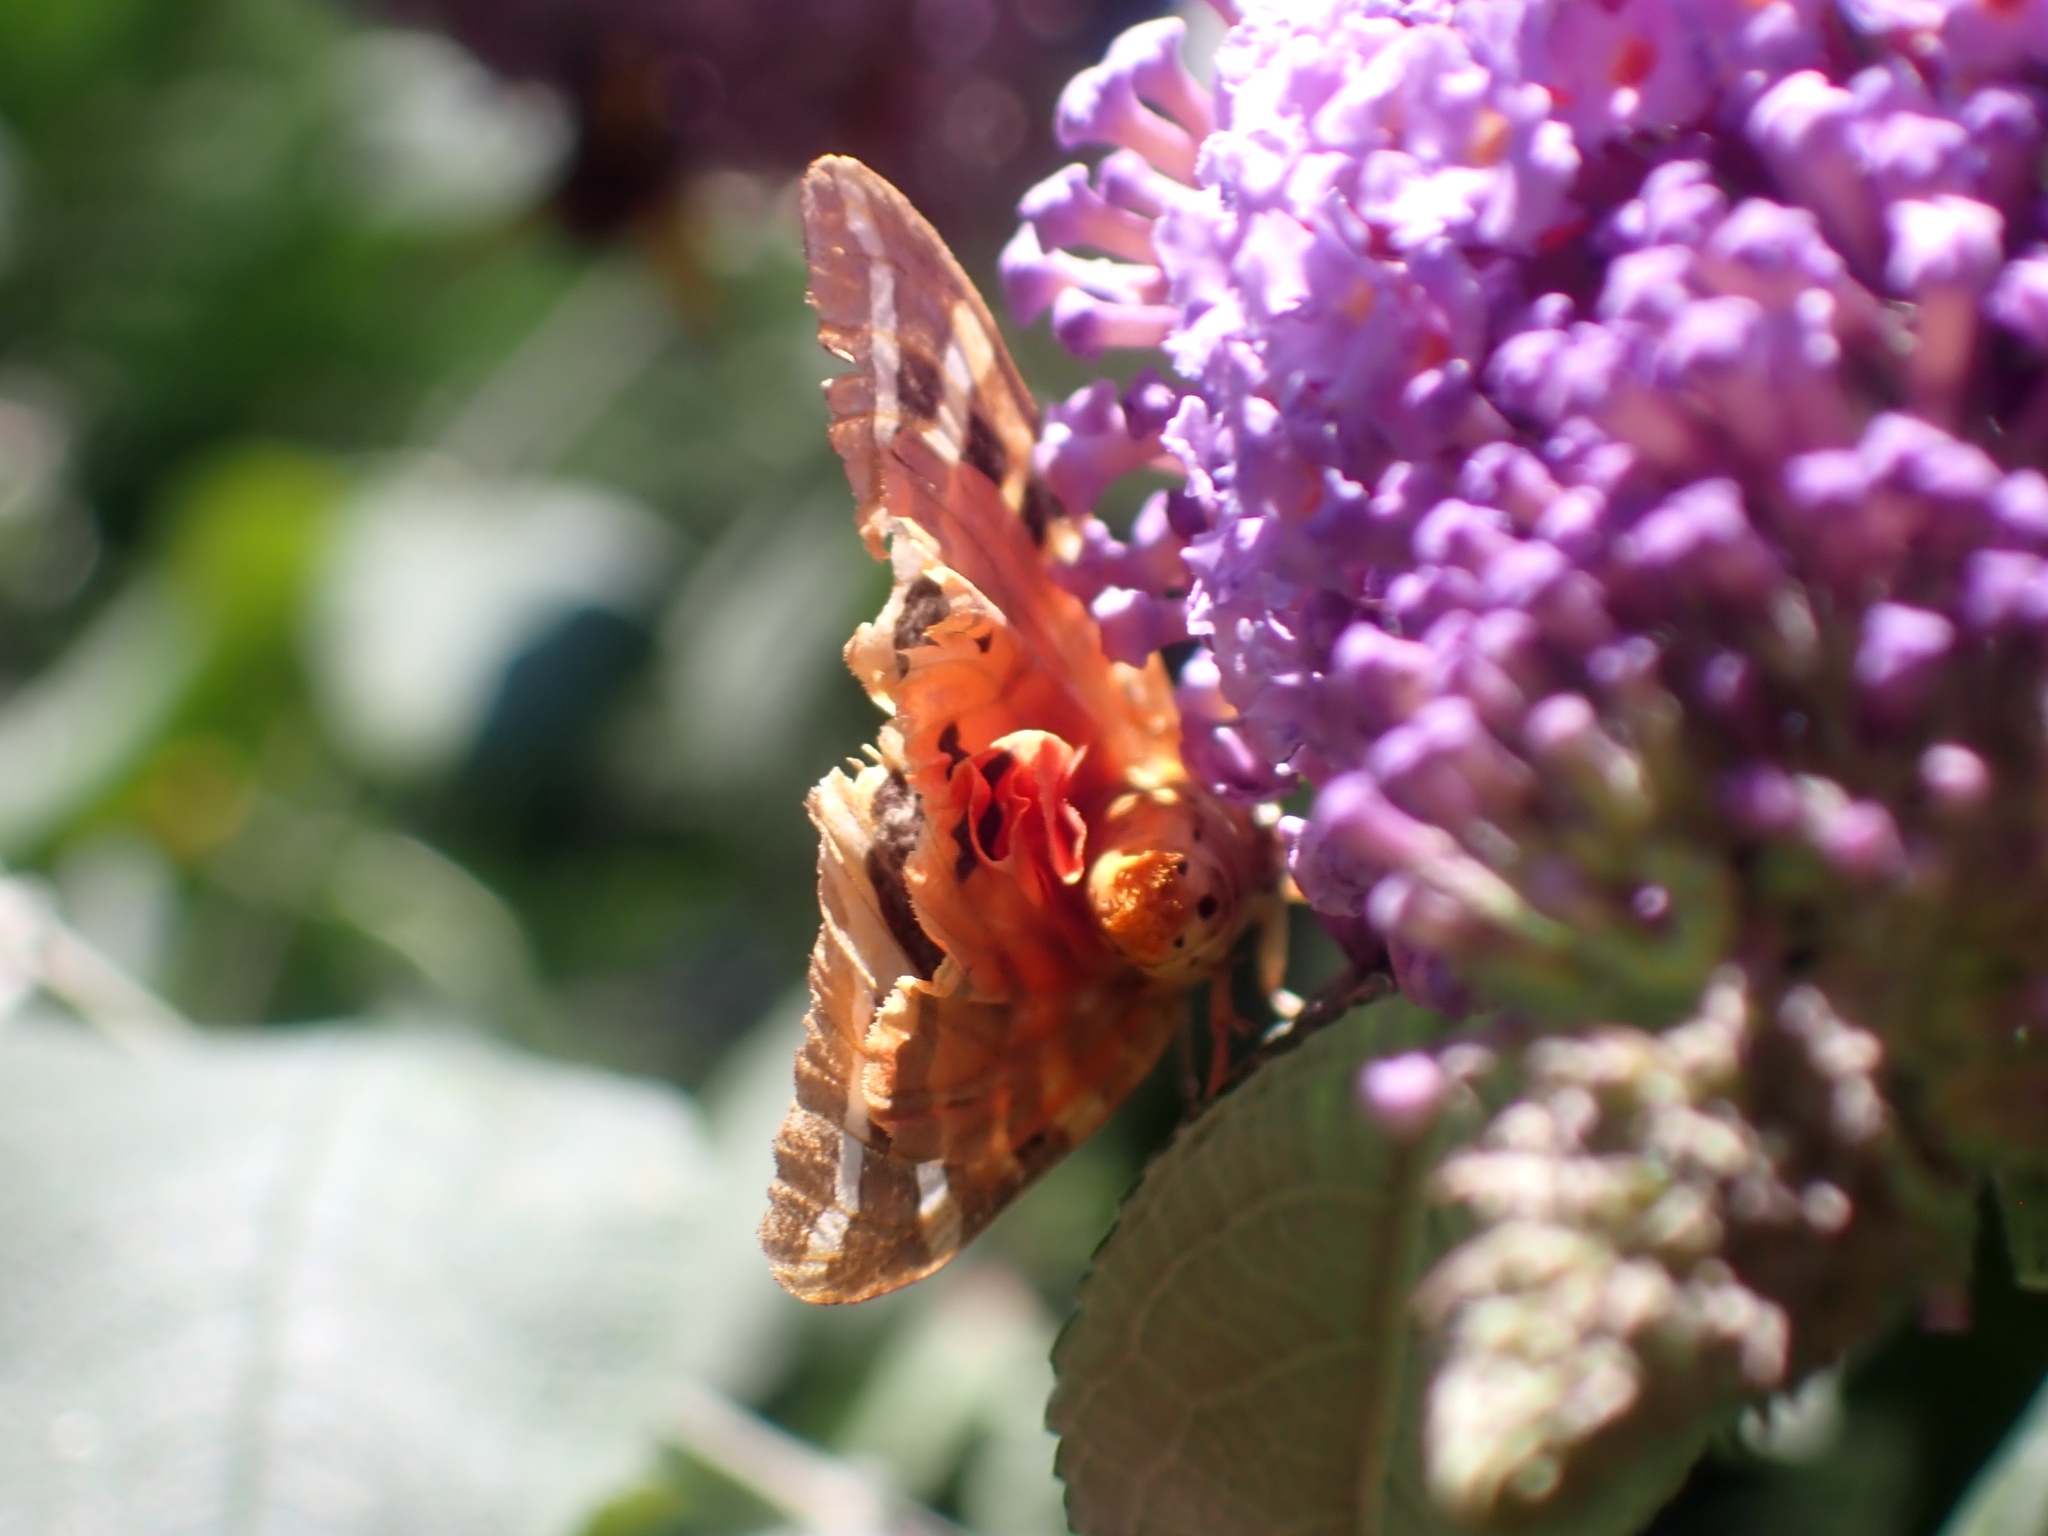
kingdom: Animalia
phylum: Arthropoda
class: Insecta
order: Lepidoptera
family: Erebidae
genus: Euplagia
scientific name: Euplagia quadripunctaria
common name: Jersey tiger
